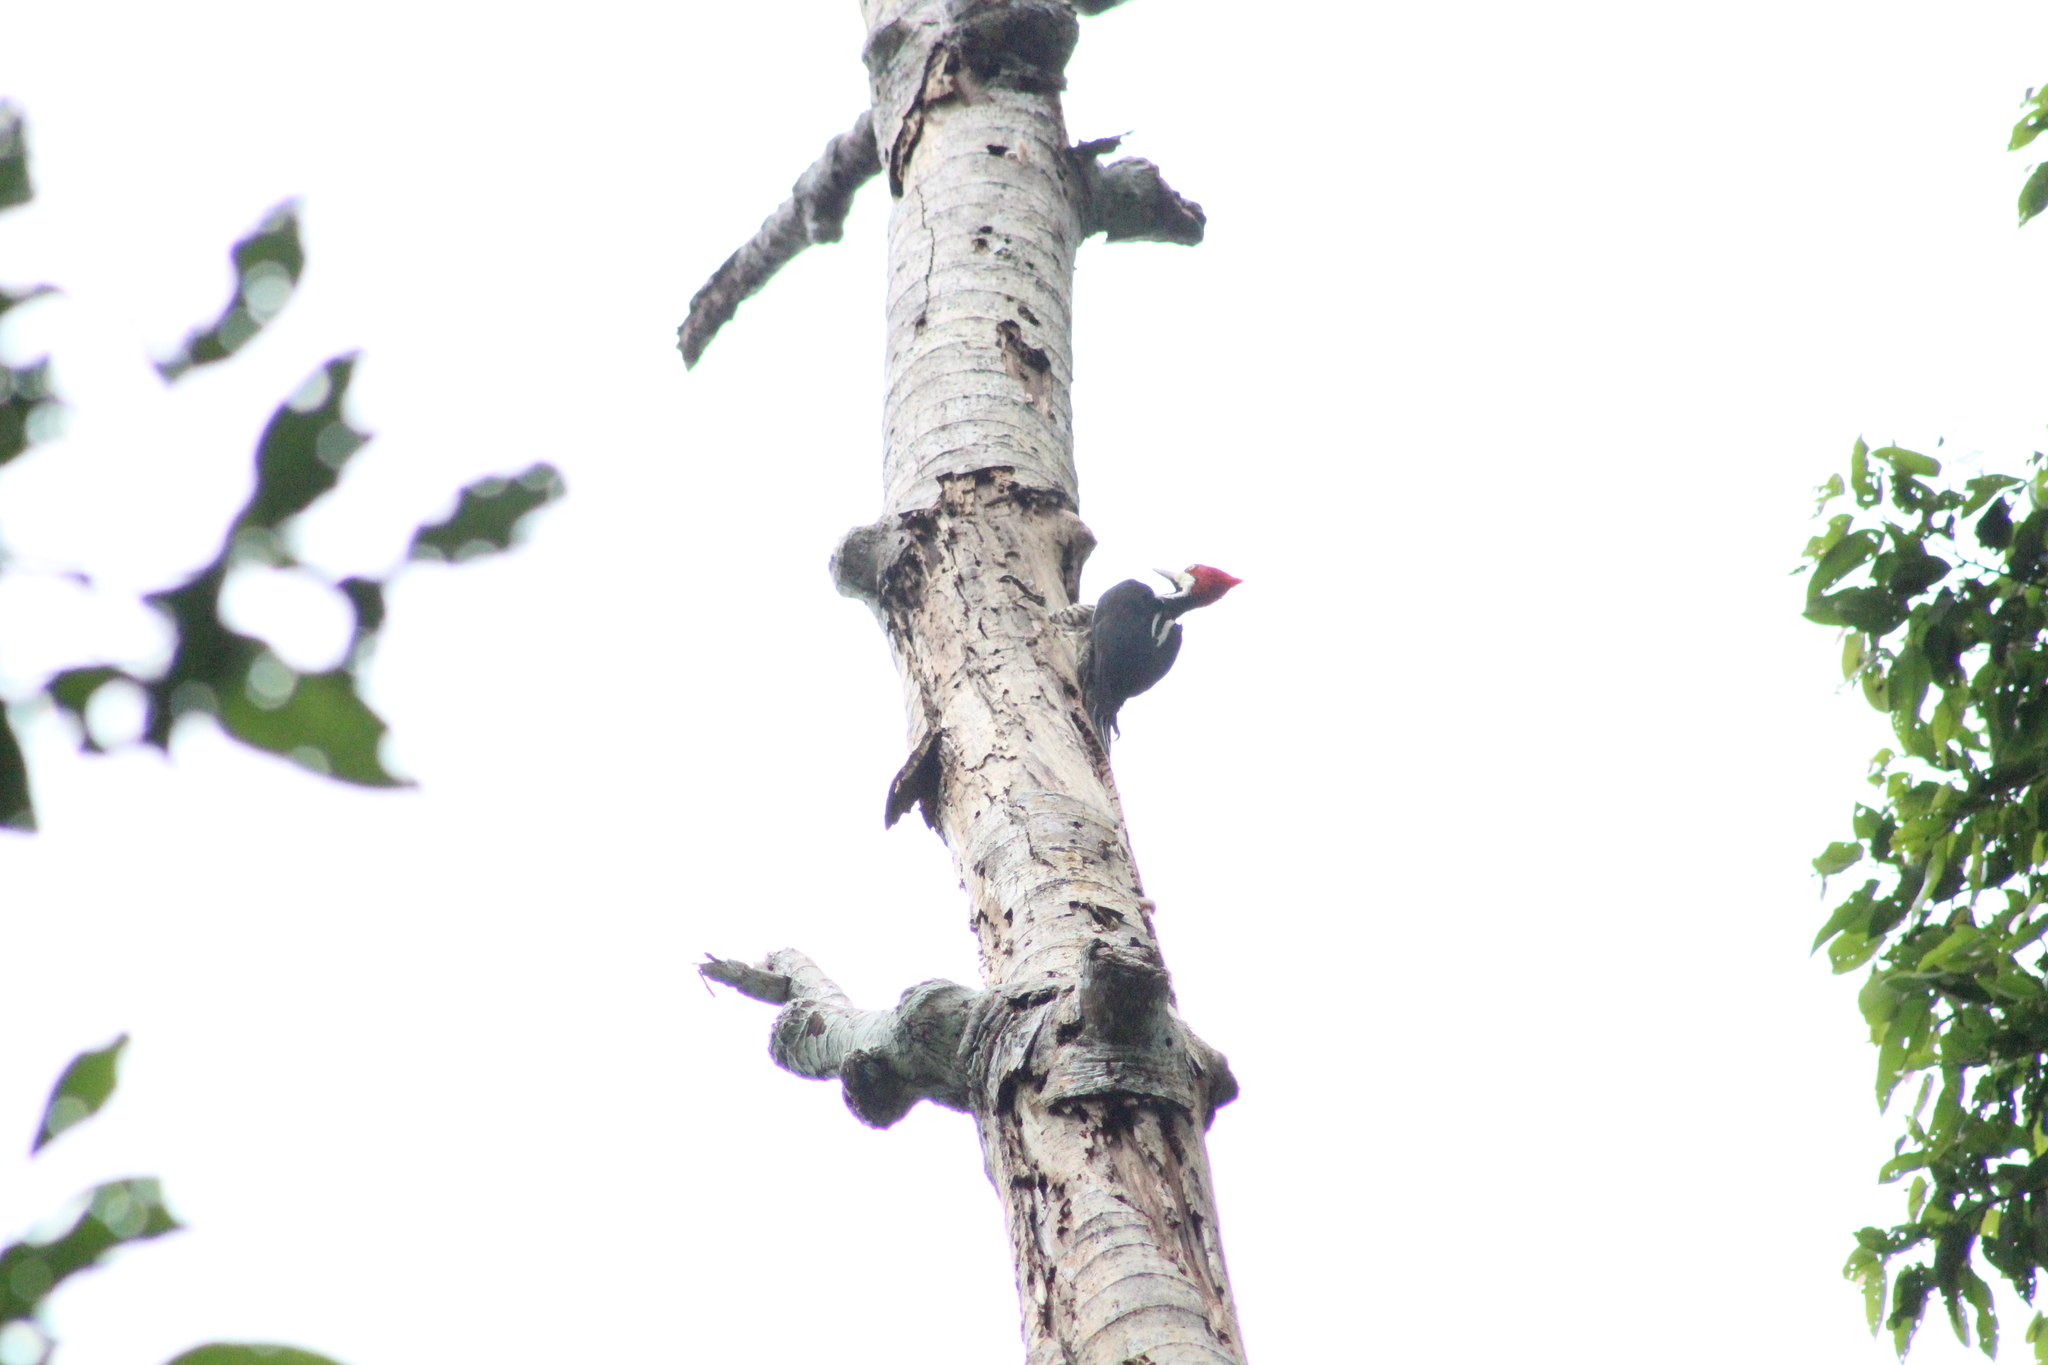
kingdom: Animalia
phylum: Chordata
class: Aves
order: Piciformes
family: Picidae
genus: Campephilus
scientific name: Campephilus melanoleucos
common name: Crimson-crested woodpecker
